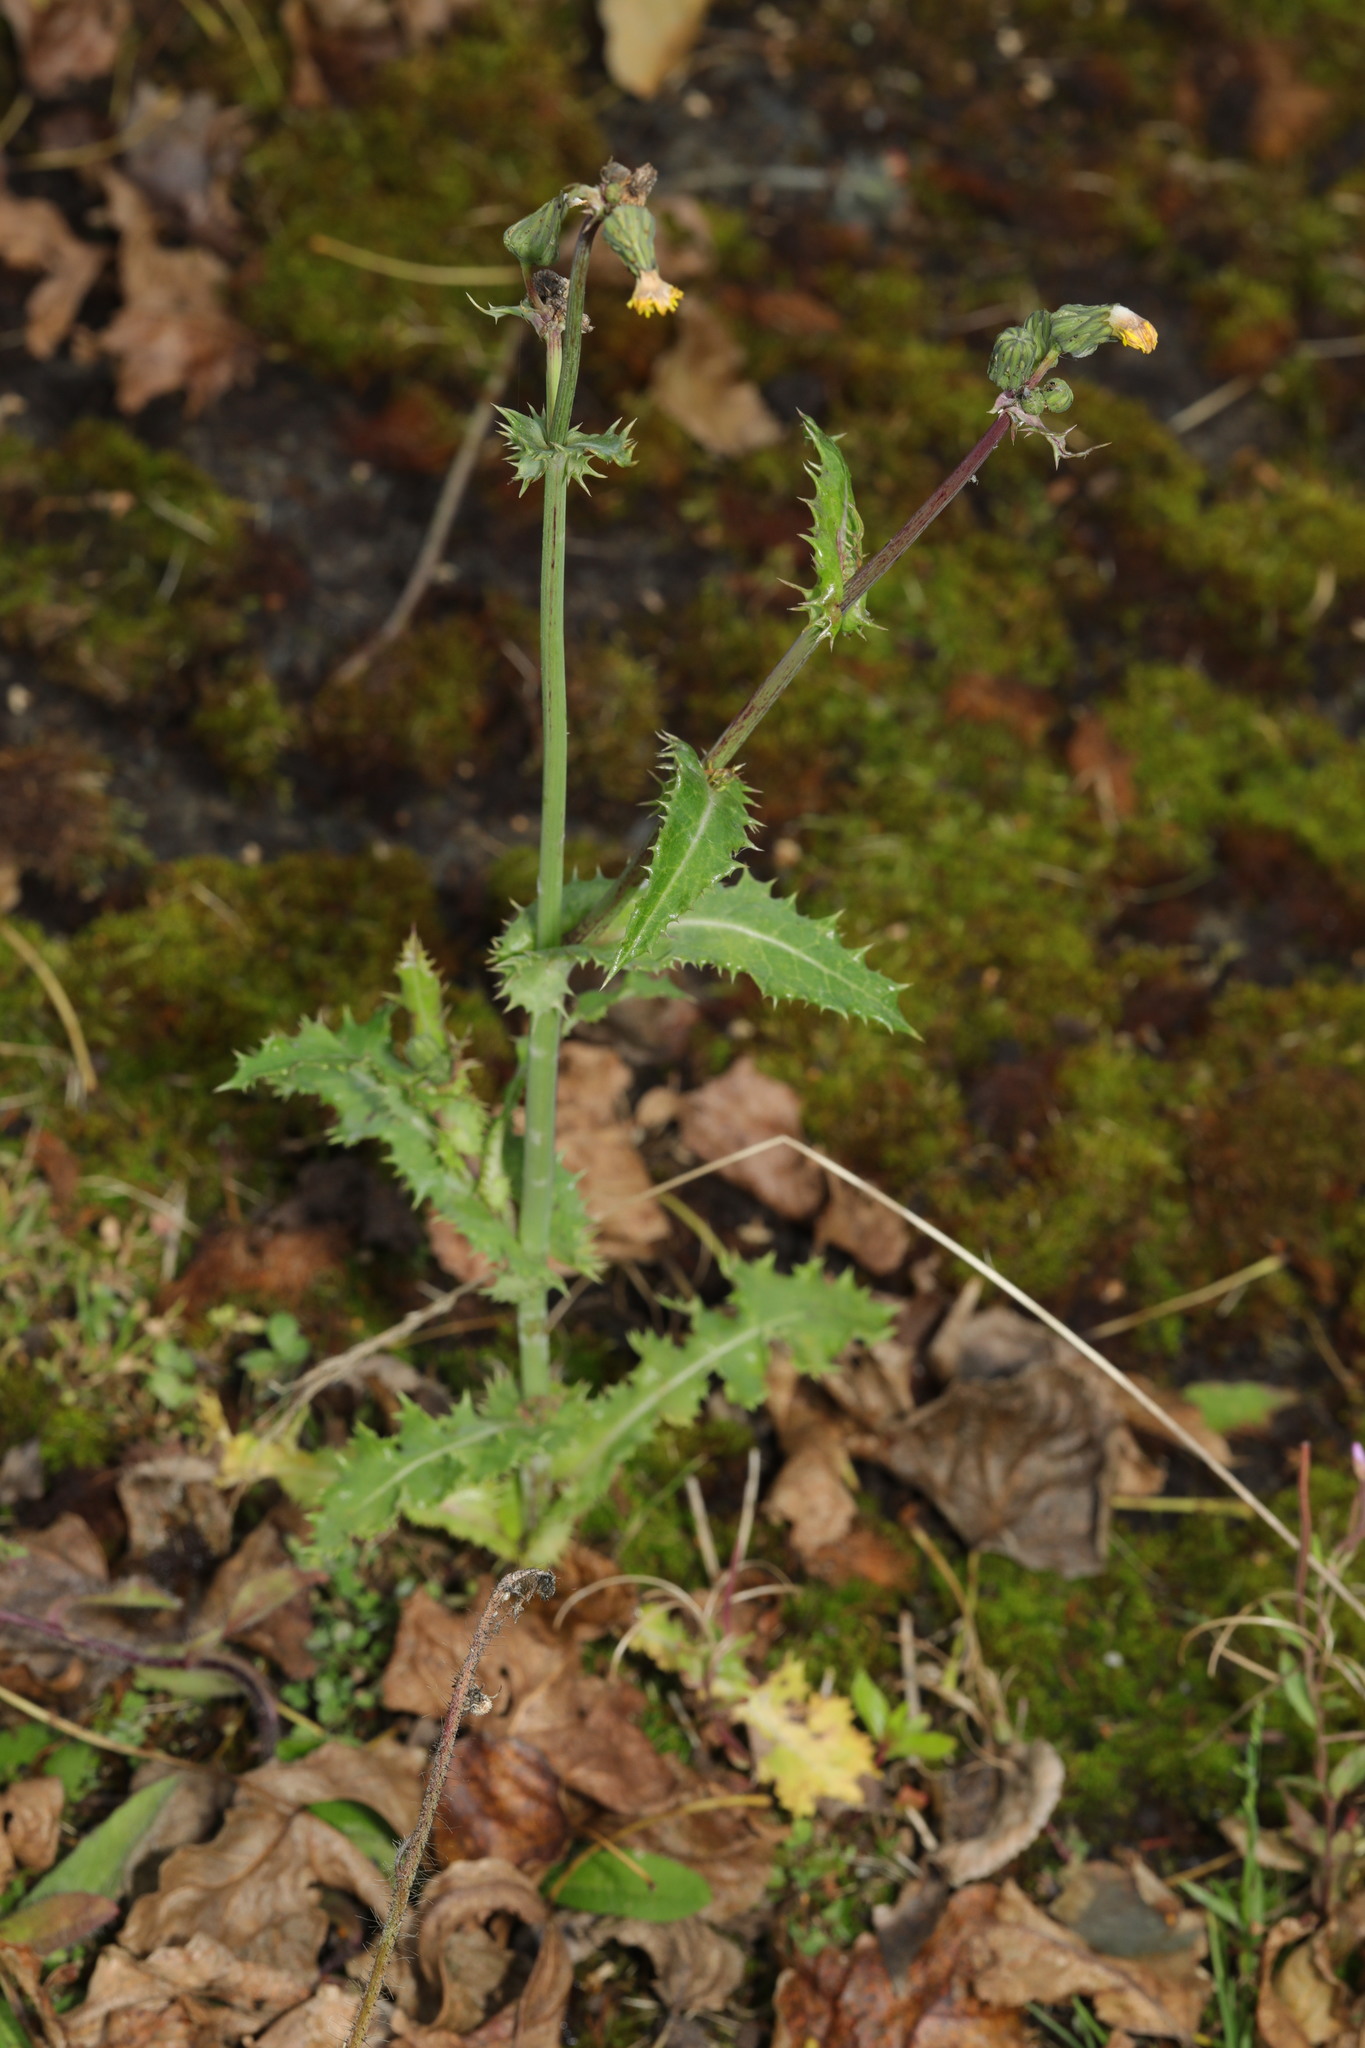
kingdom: Plantae
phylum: Tracheophyta
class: Magnoliopsida
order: Asterales
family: Asteraceae
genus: Sonchus
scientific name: Sonchus asper
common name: Prickly sow-thistle
